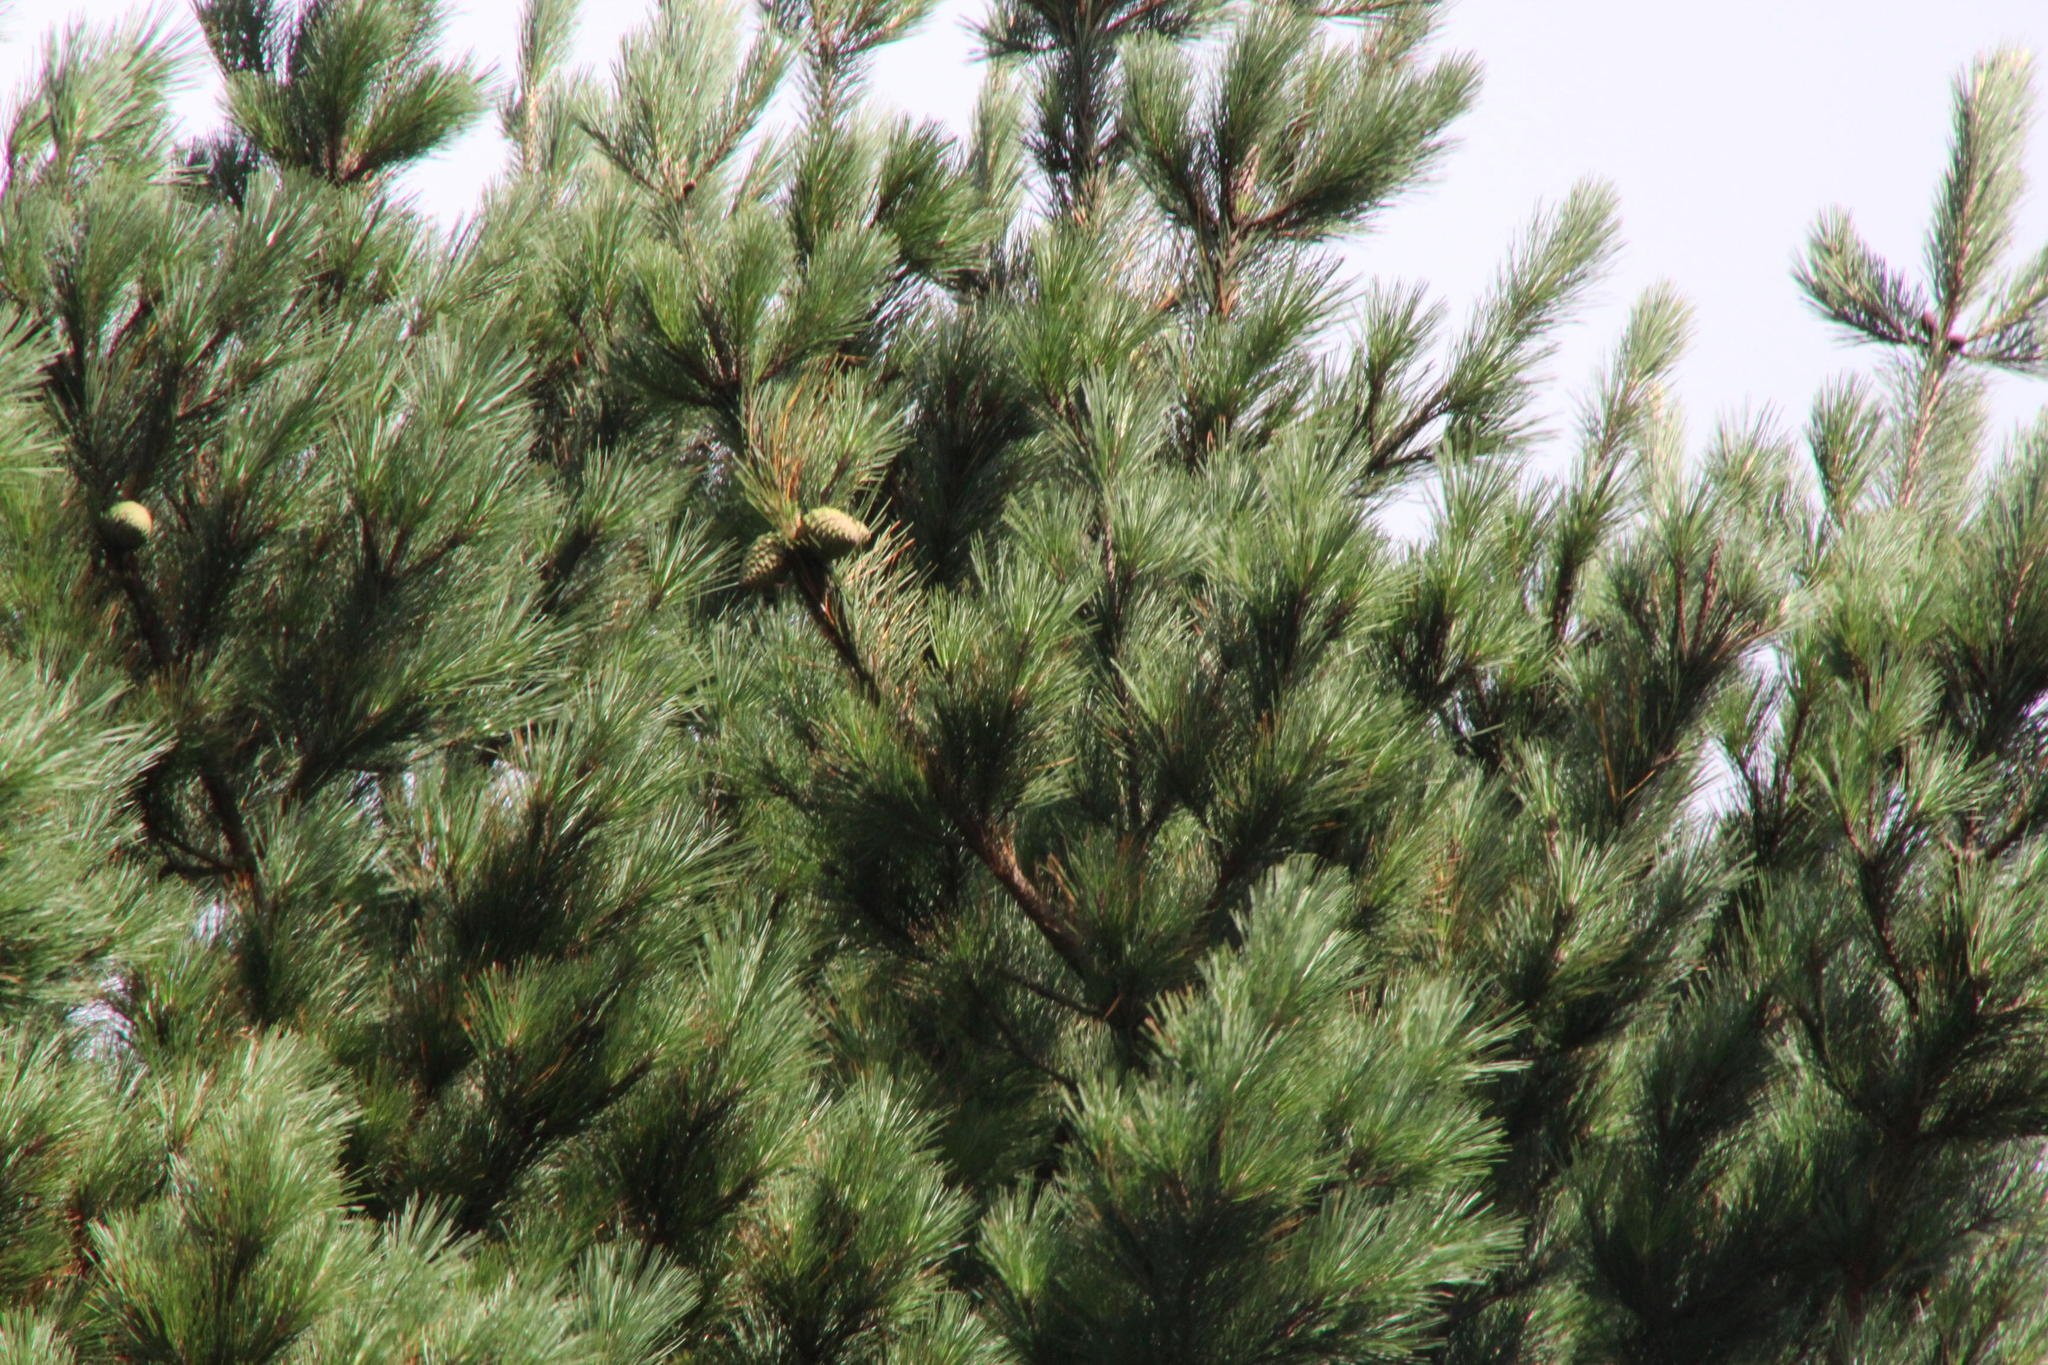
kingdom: Plantae
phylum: Tracheophyta
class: Pinopsida
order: Pinales
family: Pinaceae
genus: Pinus
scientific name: Pinus pinaster
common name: Maritime pine
